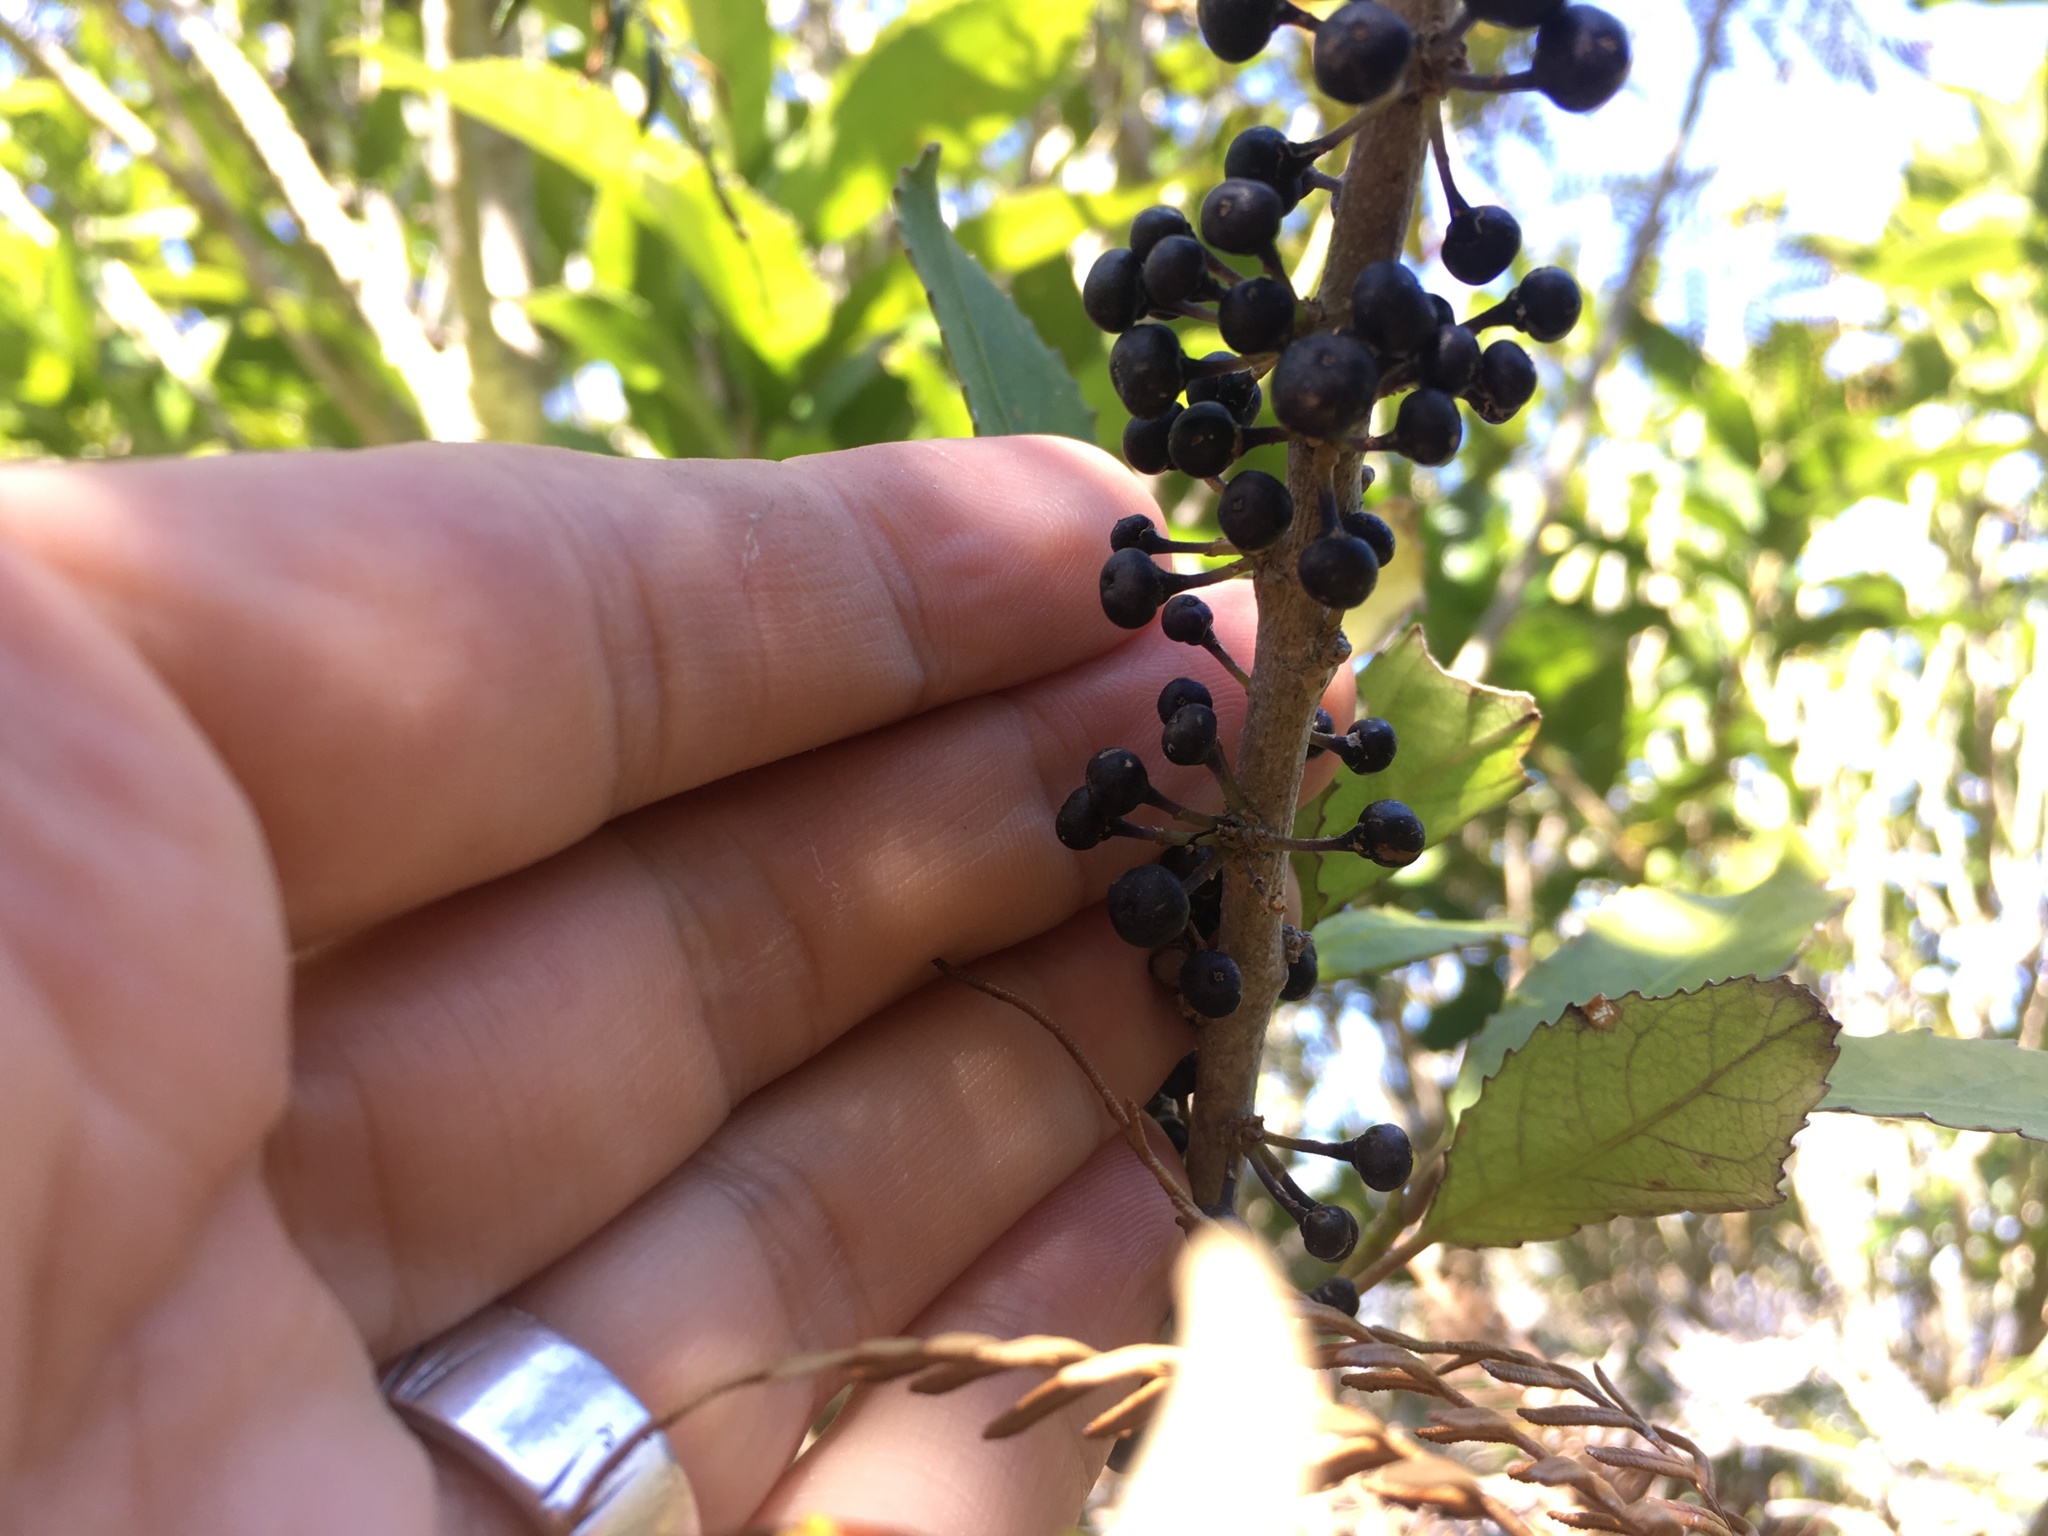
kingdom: Plantae
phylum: Tracheophyta
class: Magnoliopsida
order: Malpighiales
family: Violaceae
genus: Melicytus
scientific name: Melicytus ramiflorus
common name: Mahoe
